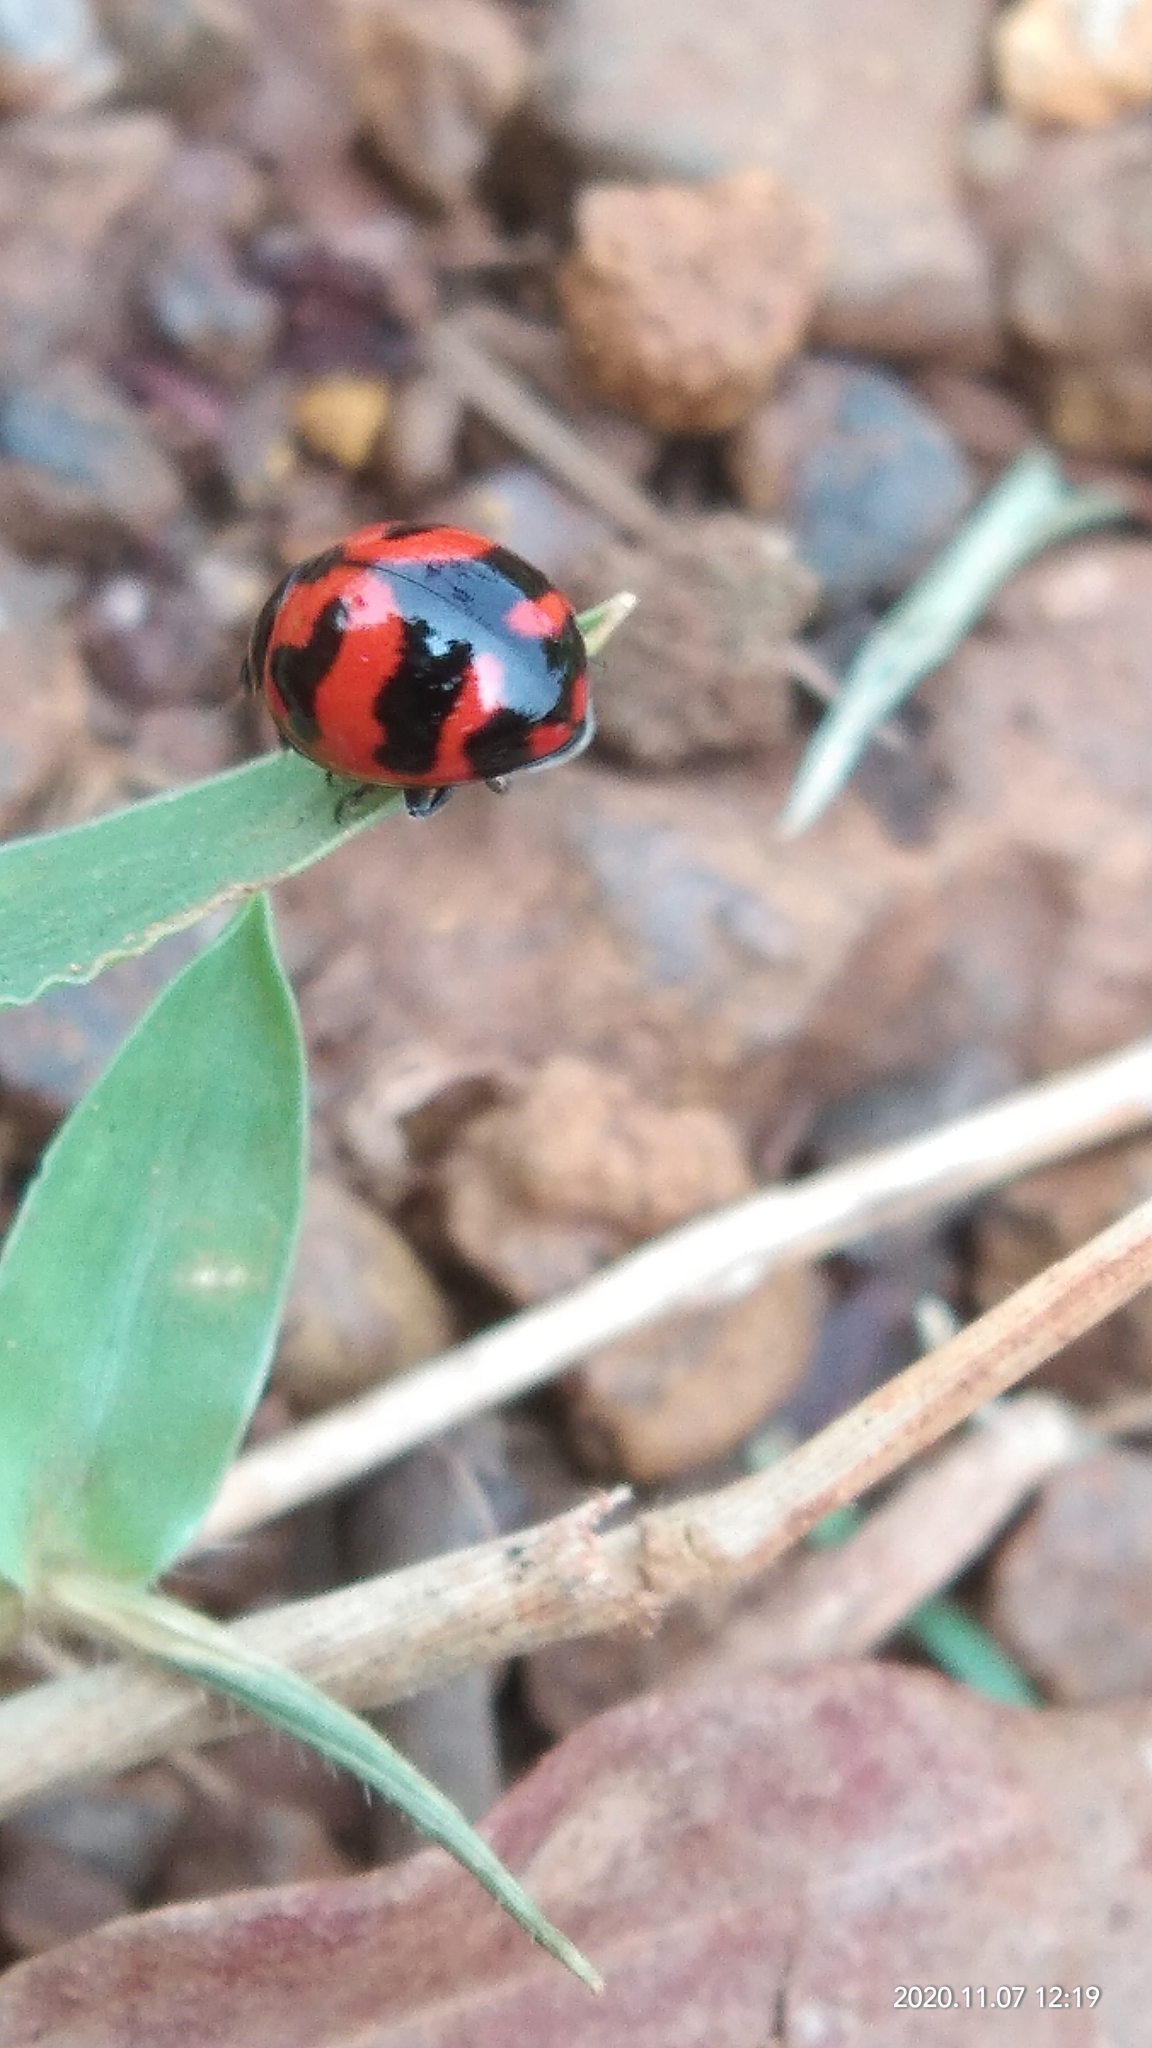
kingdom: Animalia
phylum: Arthropoda
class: Insecta
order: Coleoptera
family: Coccinellidae
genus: Coccinella
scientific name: Coccinella transversalis
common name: Transverse lady beetle
